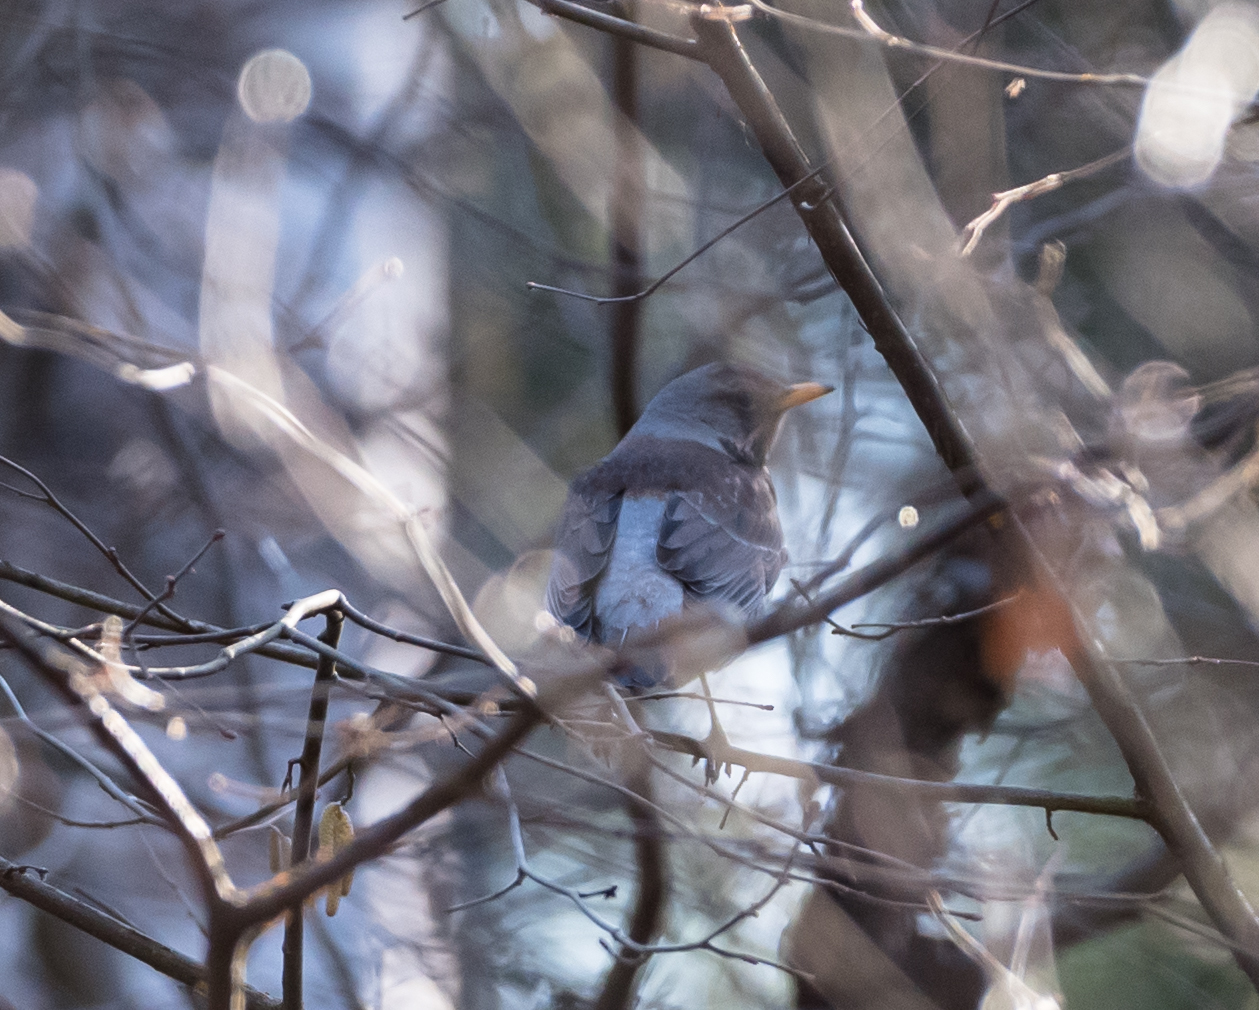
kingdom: Animalia
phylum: Chordata
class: Aves
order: Passeriformes
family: Turdidae
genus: Turdus
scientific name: Turdus pilaris
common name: Fieldfare
